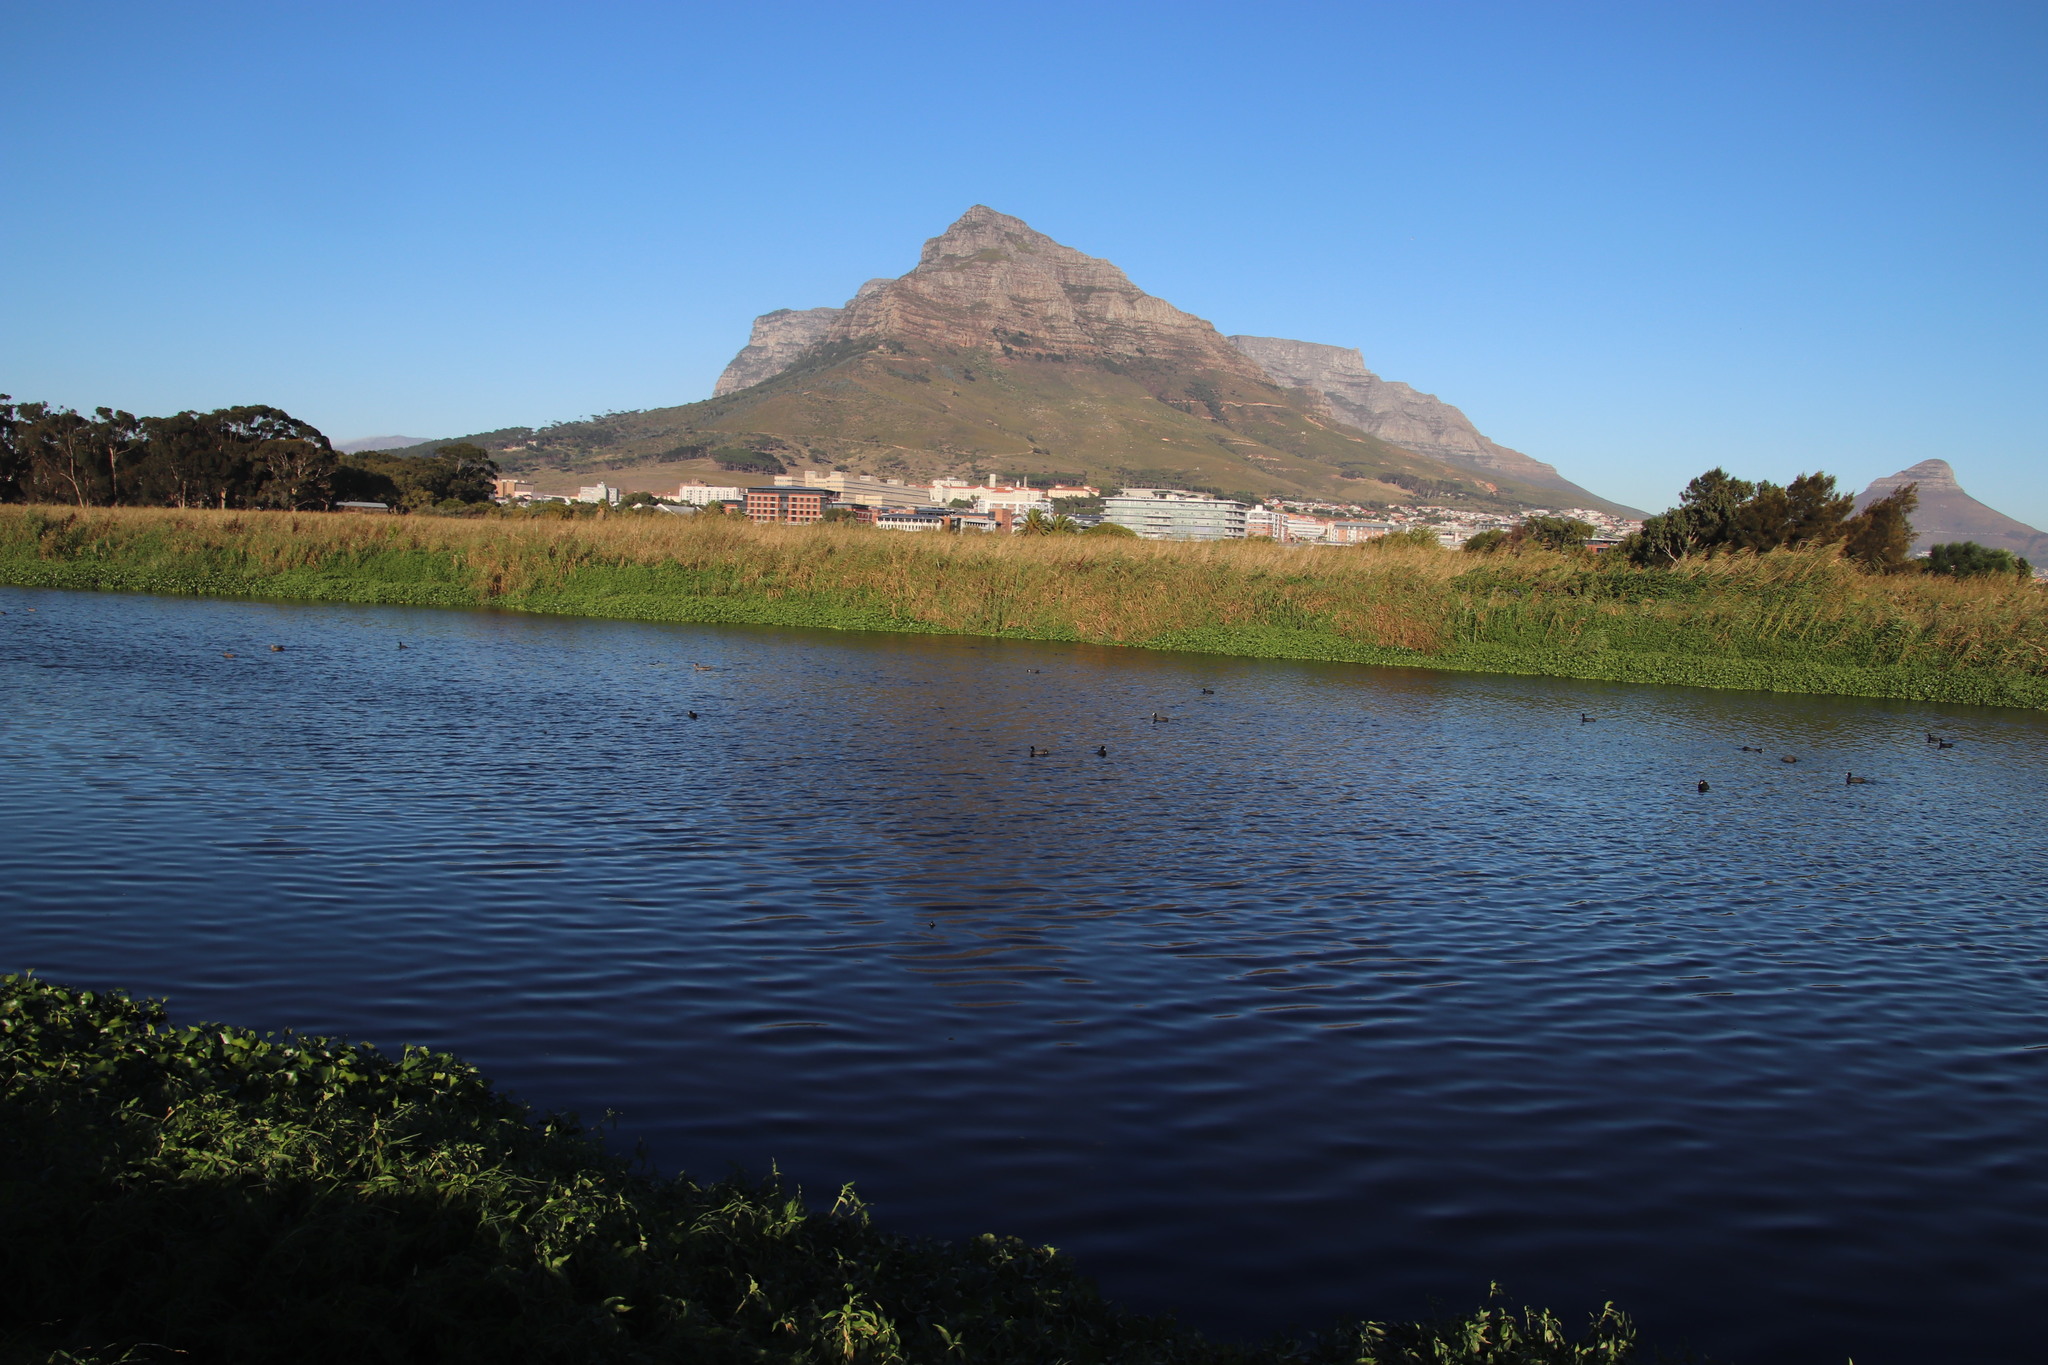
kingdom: Plantae
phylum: Tracheophyta
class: Liliopsida
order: Poales
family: Poaceae
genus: Phragmites
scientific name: Phragmites australis
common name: Common reed
